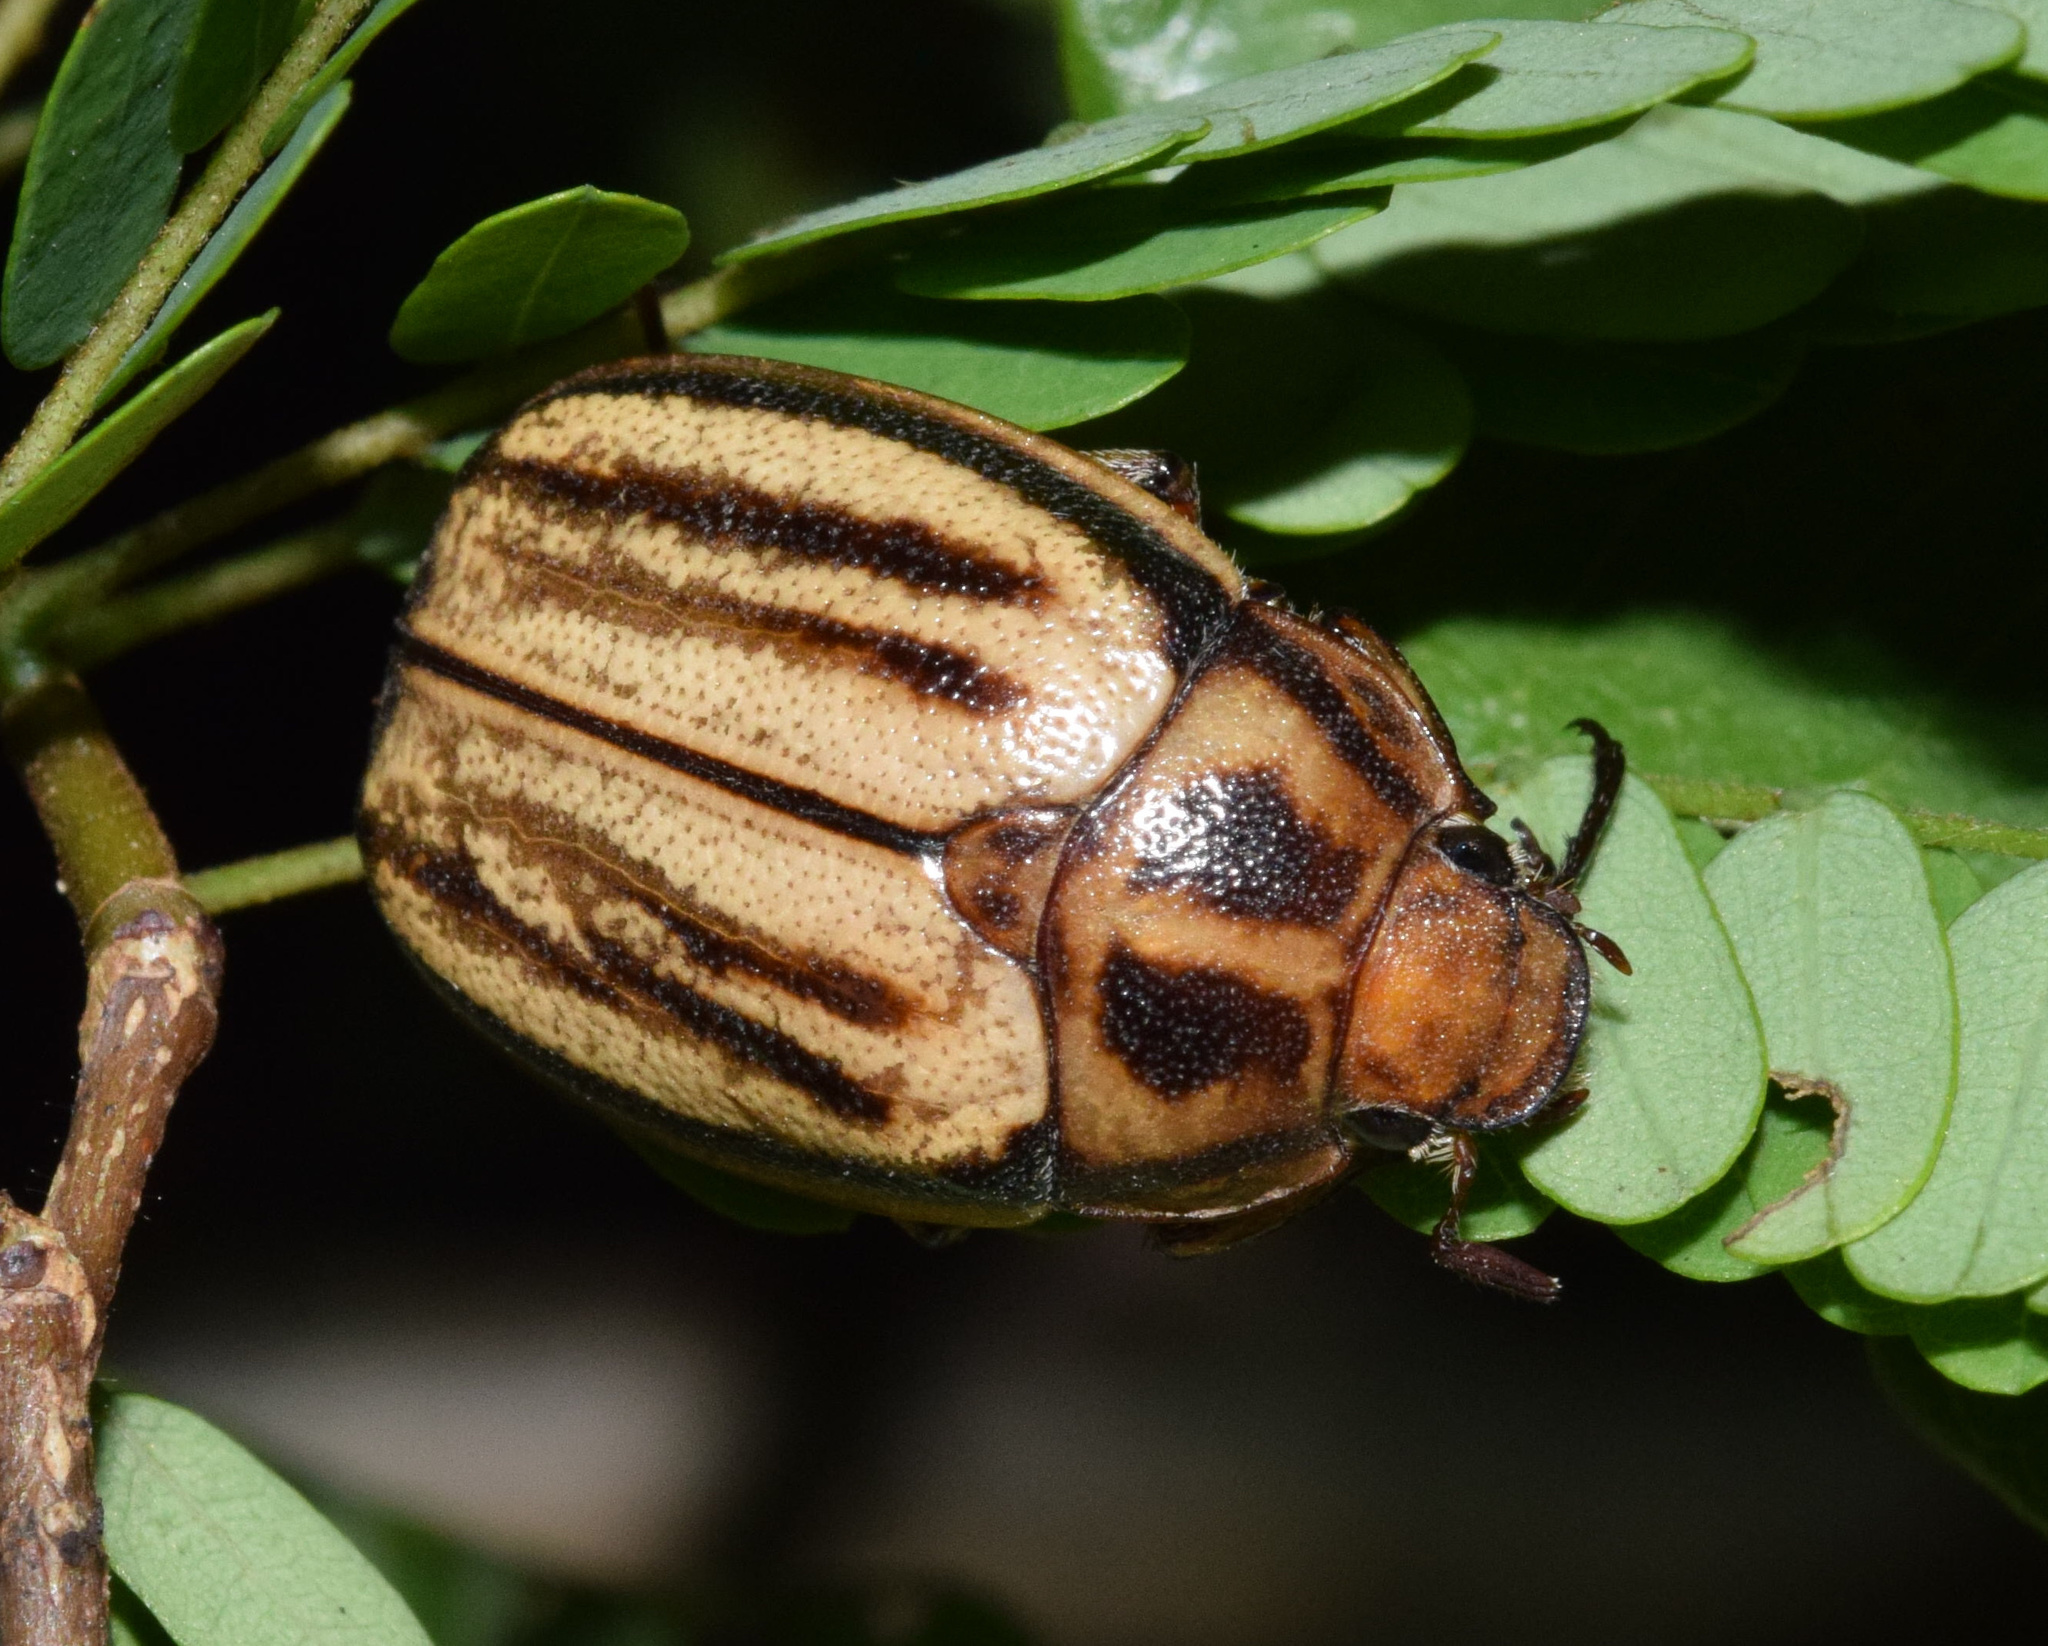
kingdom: Animalia
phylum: Arthropoda
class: Insecta
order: Coleoptera
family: Scarabaeidae
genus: Pegylis
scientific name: Pegylis vittata
